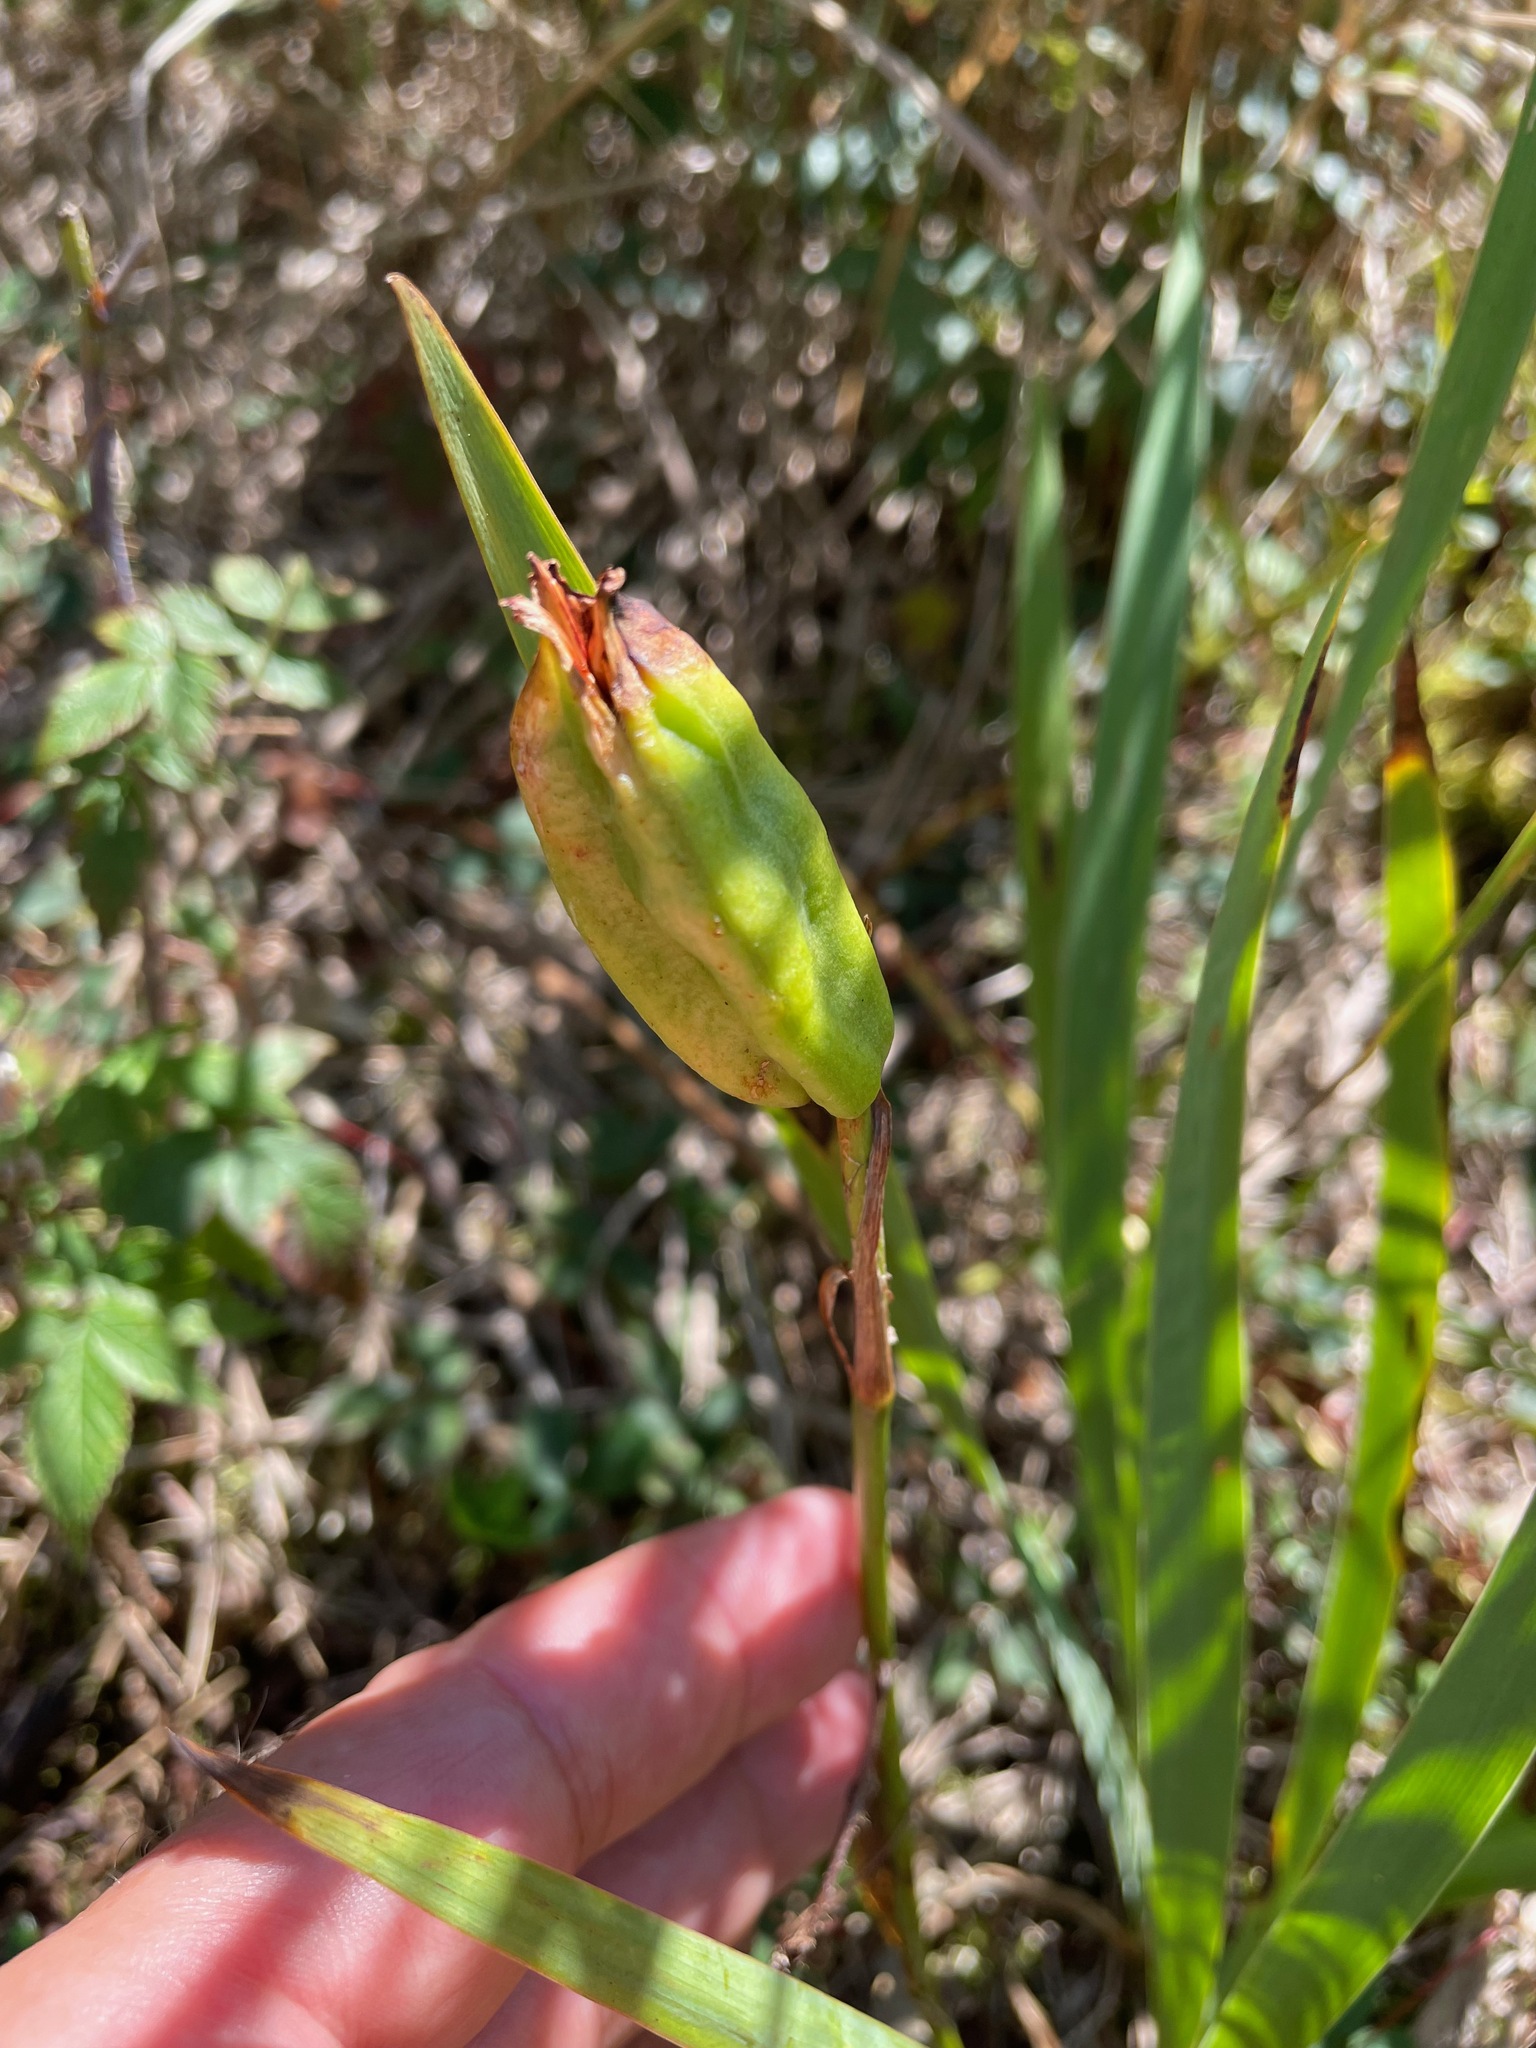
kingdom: Plantae
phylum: Tracheophyta
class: Liliopsida
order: Asparagales
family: Iridaceae
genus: Iris
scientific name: Iris versicolor
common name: Purple iris
